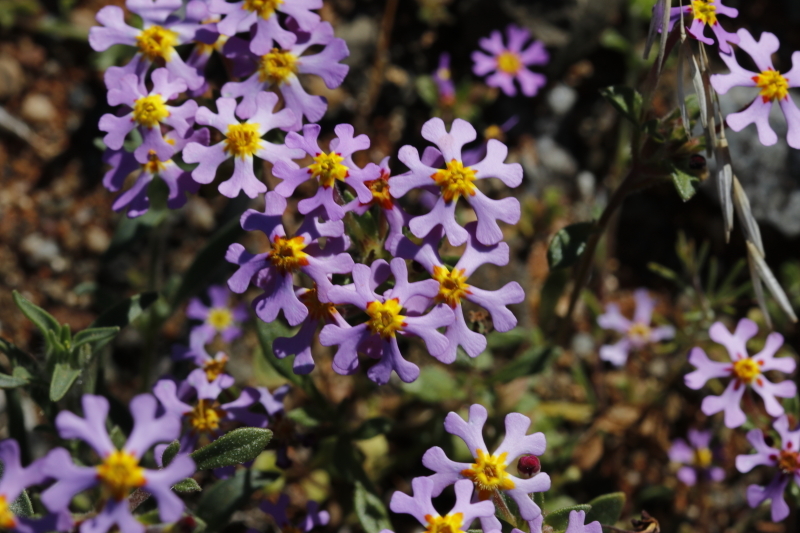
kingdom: Plantae
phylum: Tracheophyta
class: Magnoliopsida
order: Lamiales
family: Scrophulariaceae
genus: Zaluzianskya
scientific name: Zaluzianskya violacea
